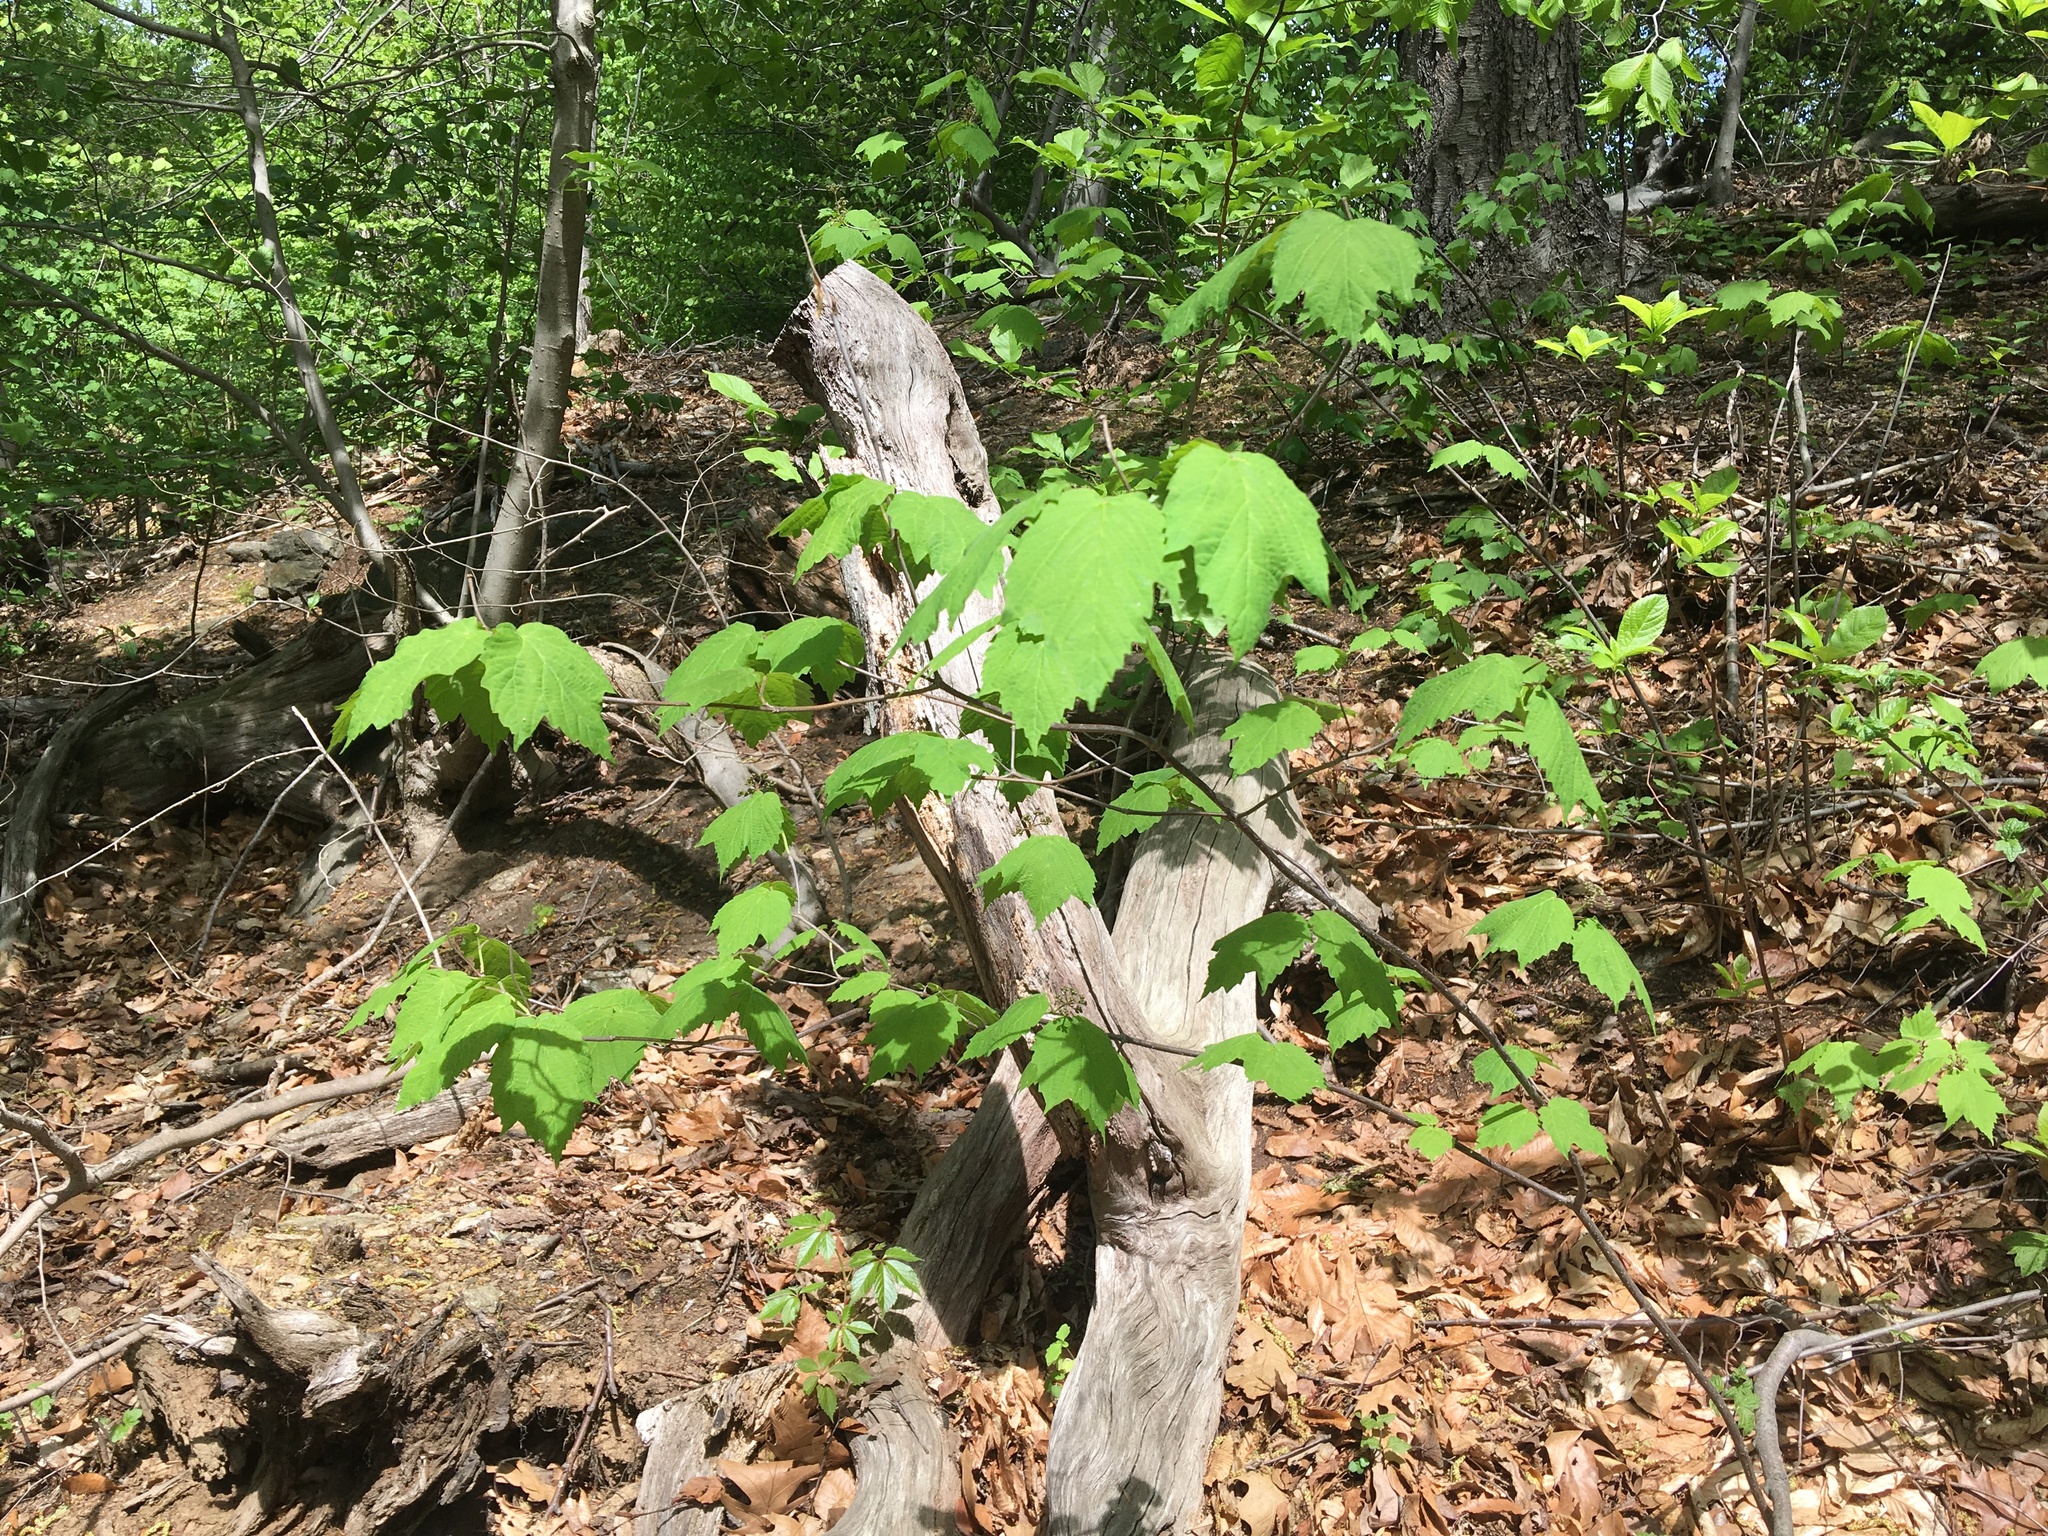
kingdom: Plantae
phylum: Tracheophyta
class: Magnoliopsida
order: Dipsacales
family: Viburnaceae
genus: Viburnum
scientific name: Viburnum acerifolium
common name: Dockmackie
